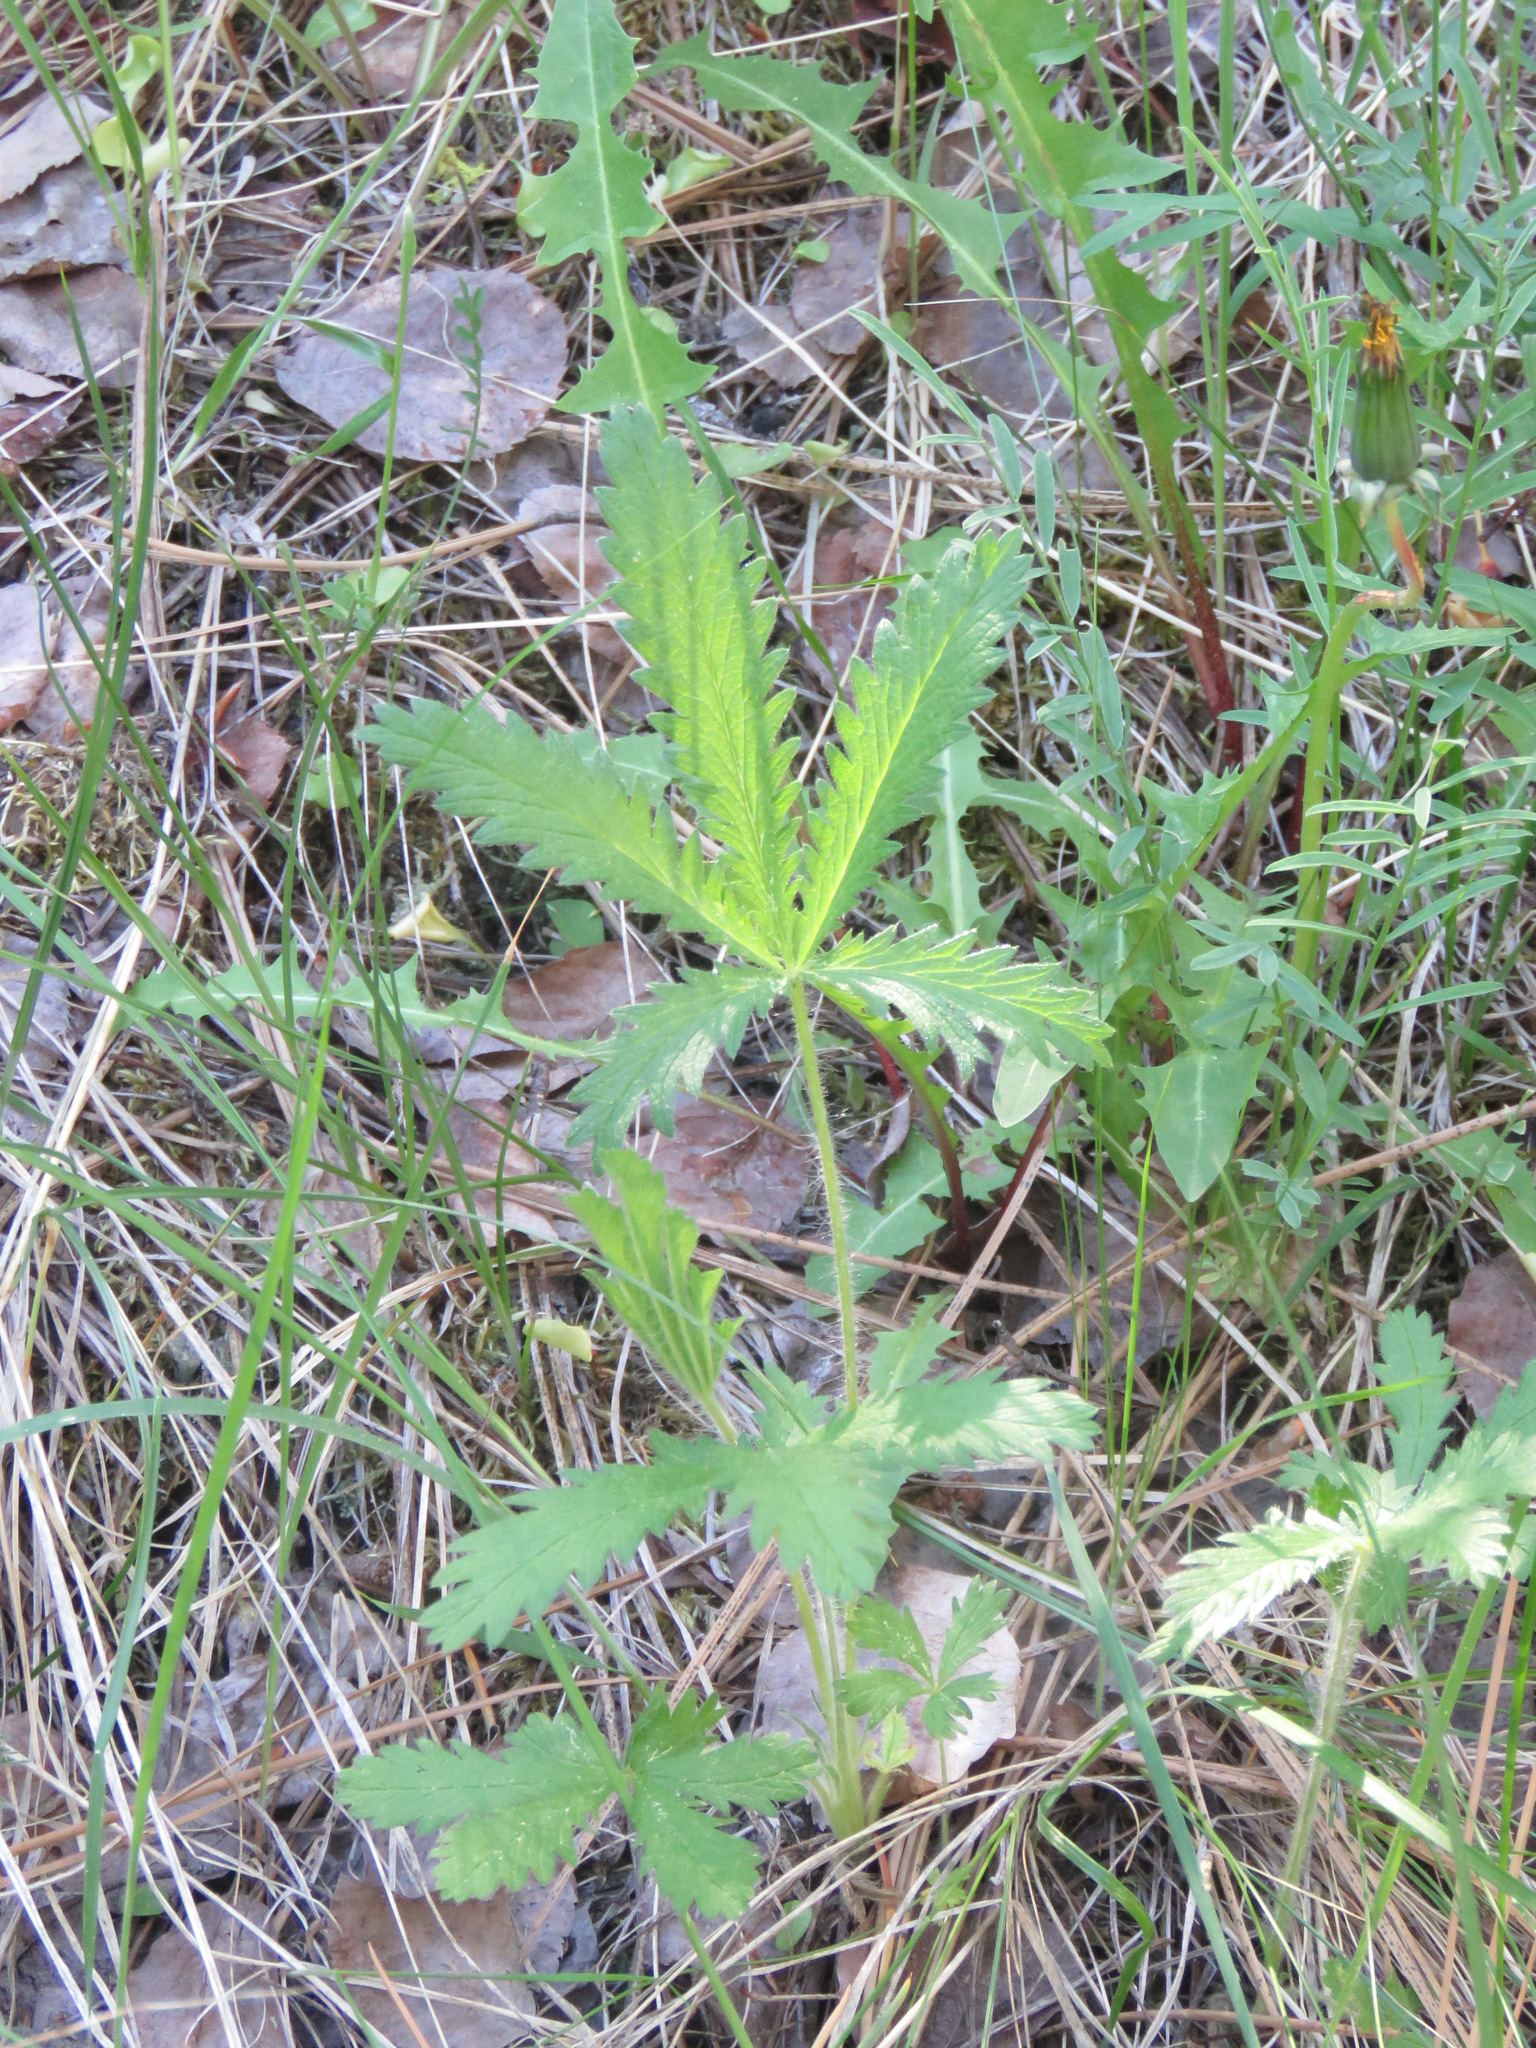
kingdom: Plantae
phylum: Tracheophyta
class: Magnoliopsida
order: Rosales
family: Rosaceae
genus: Potentilla
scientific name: Potentilla recta
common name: Sulphur cinquefoil
